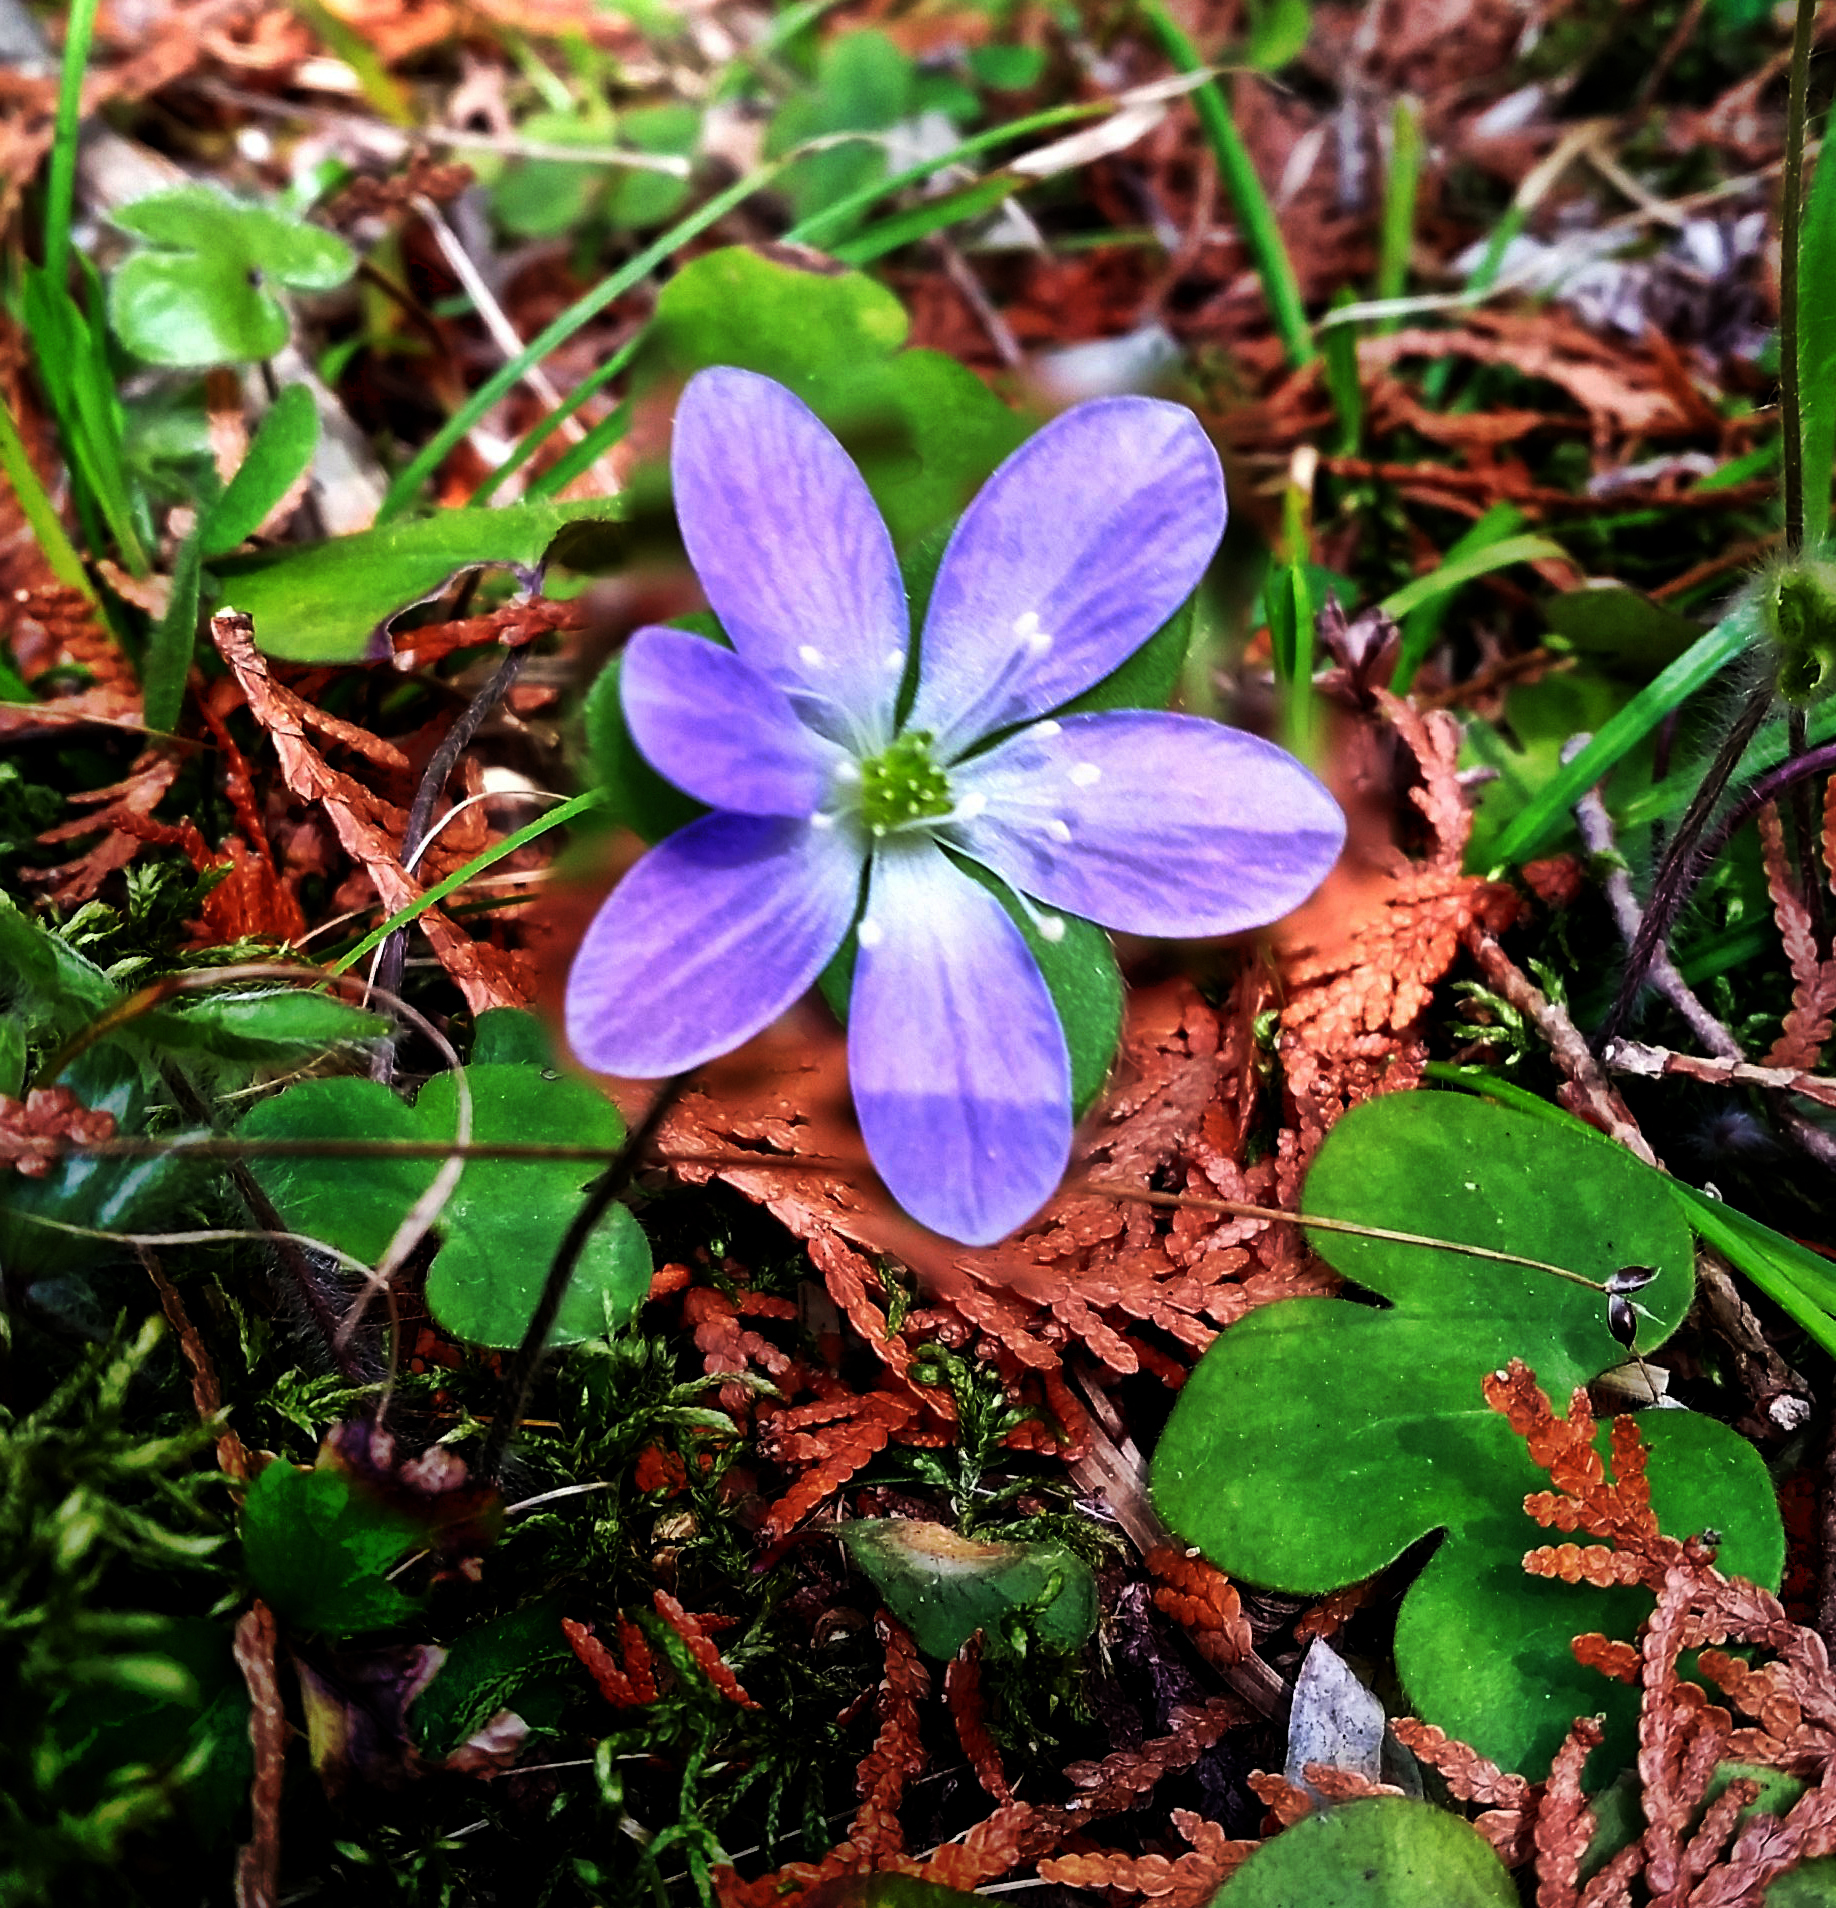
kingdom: Plantae
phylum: Tracheophyta
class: Magnoliopsida
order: Ranunculales
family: Ranunculaceae
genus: Hepatica
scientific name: Hepatica americana
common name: American hepatica
